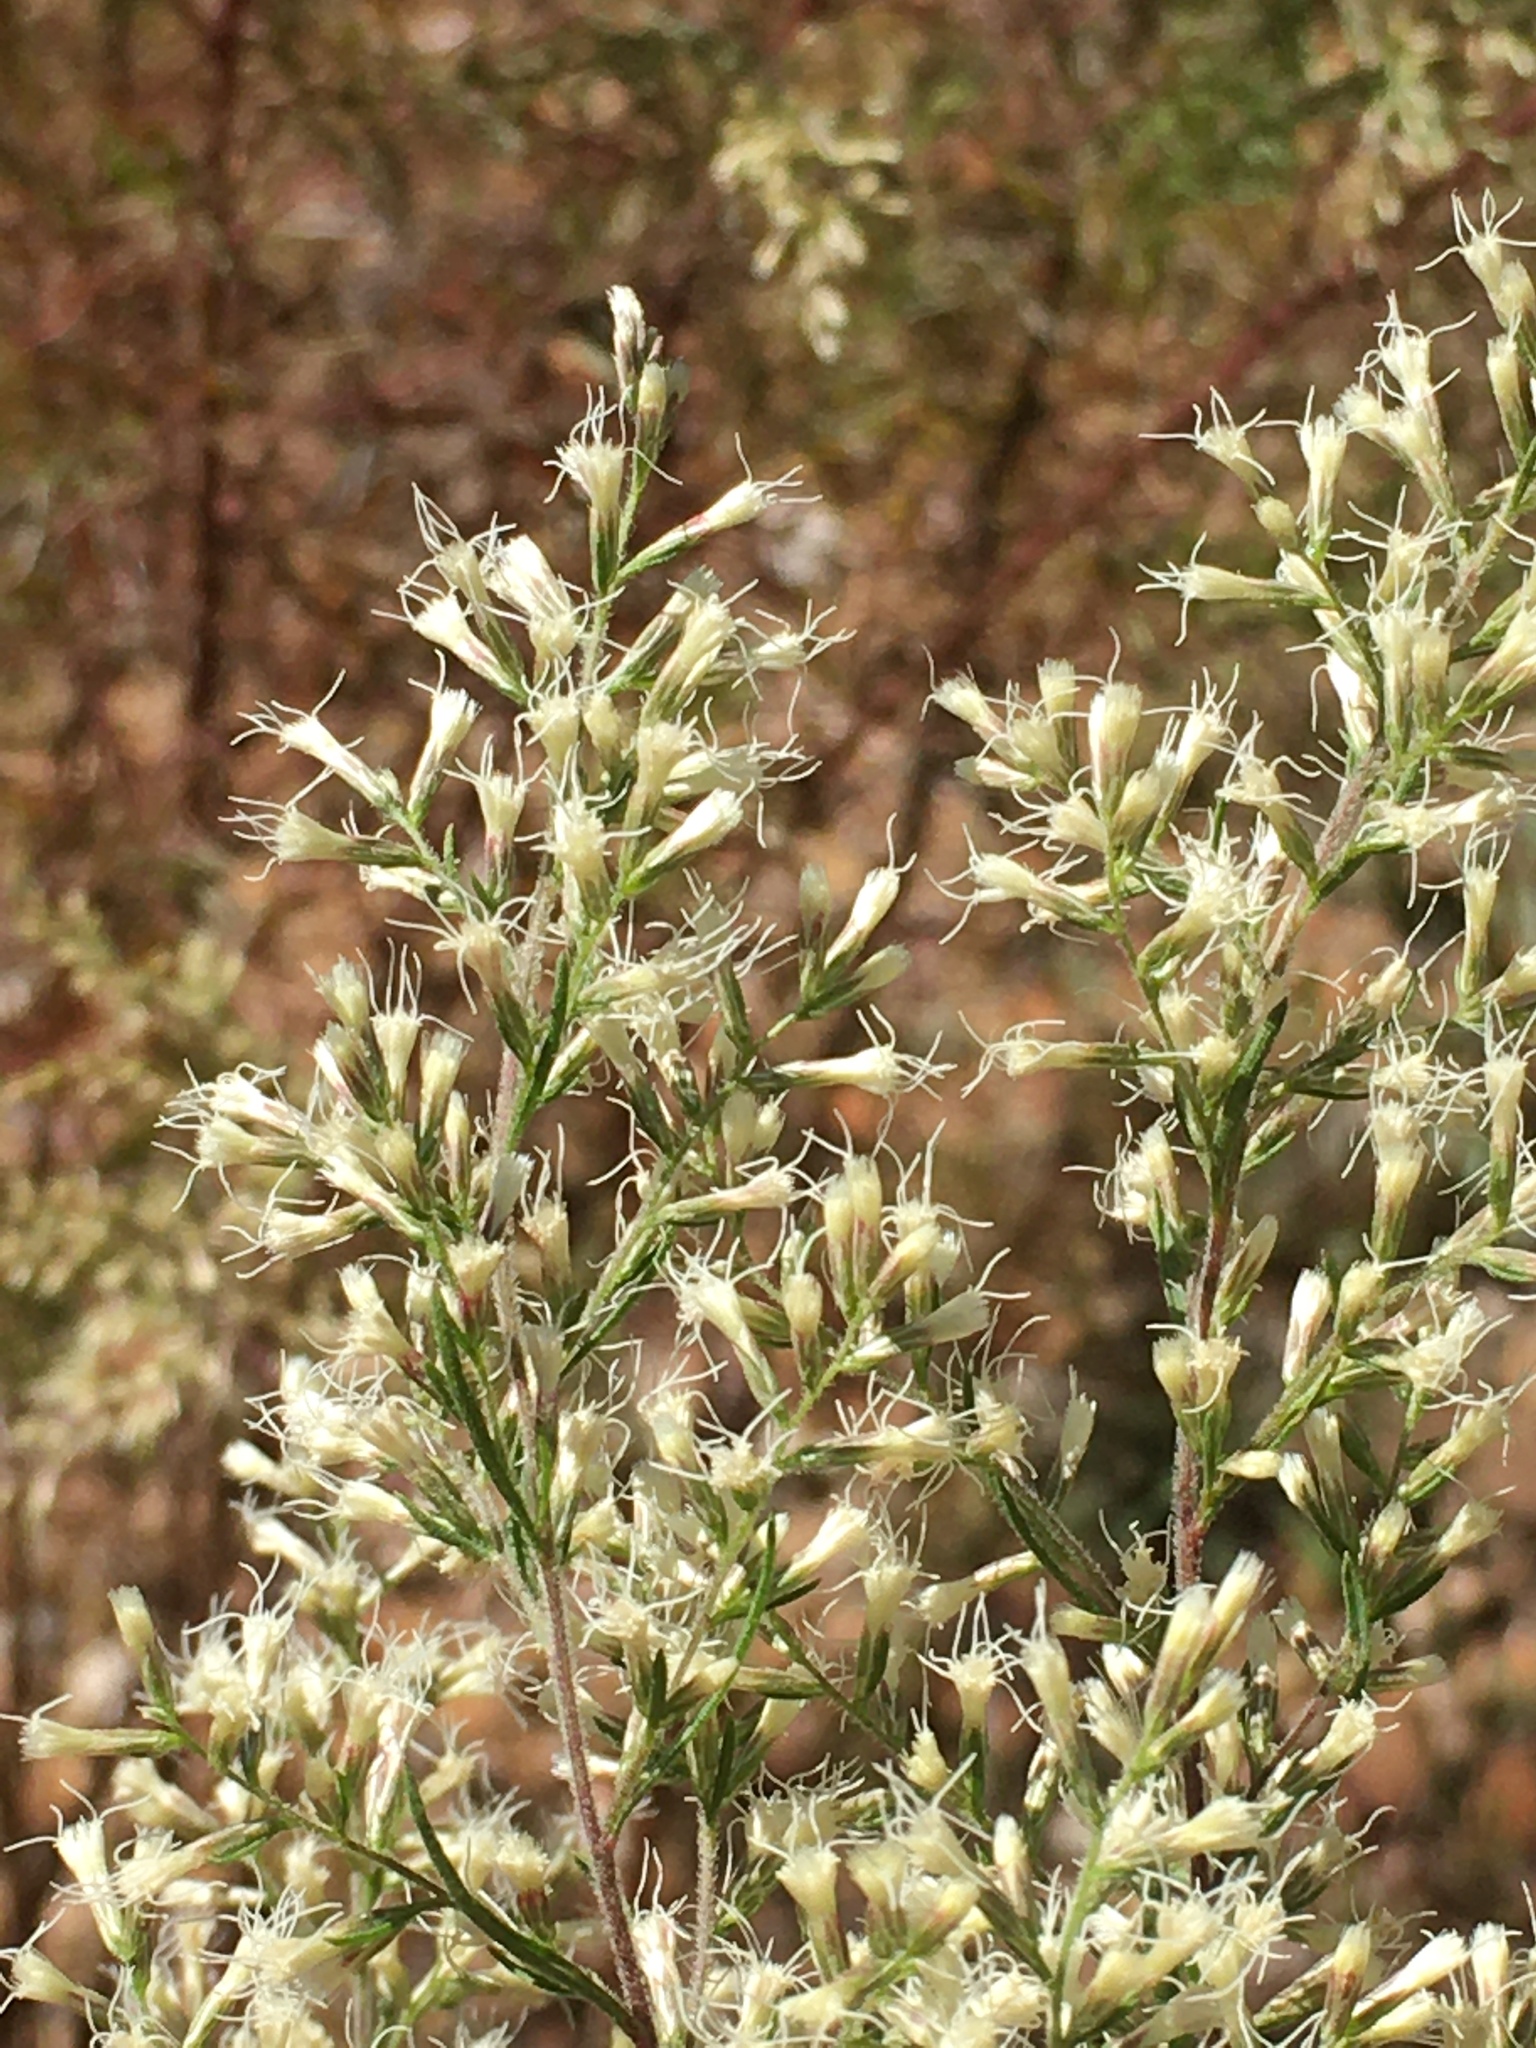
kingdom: Plantae
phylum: Tracheophyta
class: Magnoliopsida
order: Asterales
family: Asteraceae
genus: Eupatorium
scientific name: Eupatorium compositifolium
